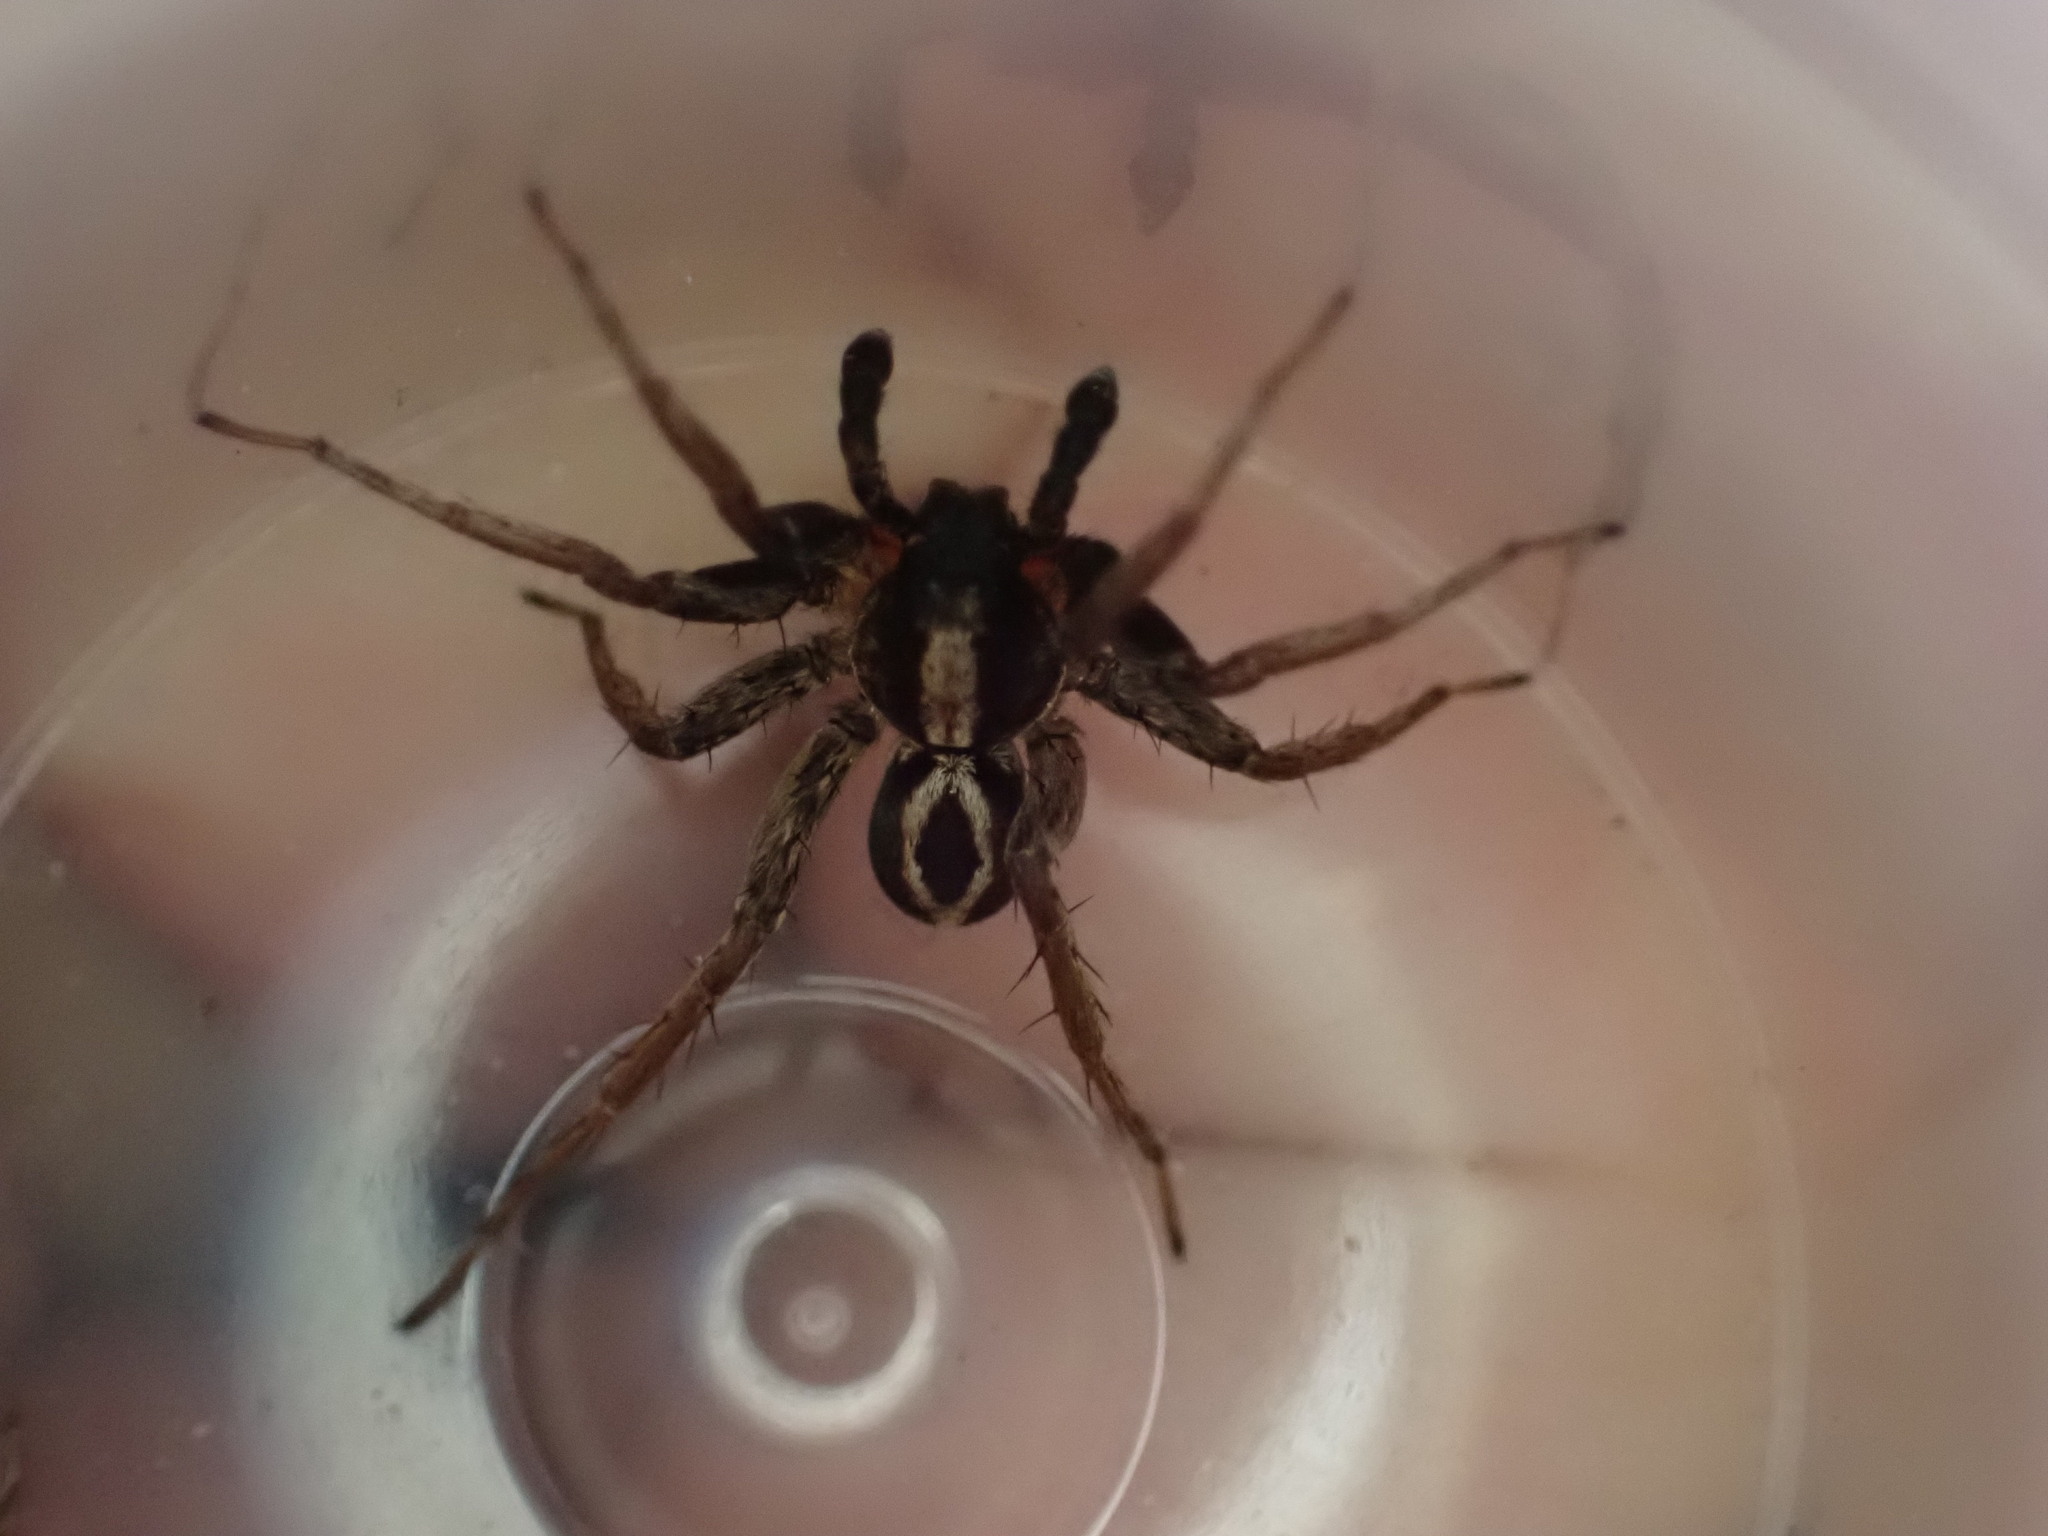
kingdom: Animalia
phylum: Arthropoda
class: Arachnida
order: Araneae
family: Lycosidae
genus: Alopecosa
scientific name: Alopecosa albofasciata
